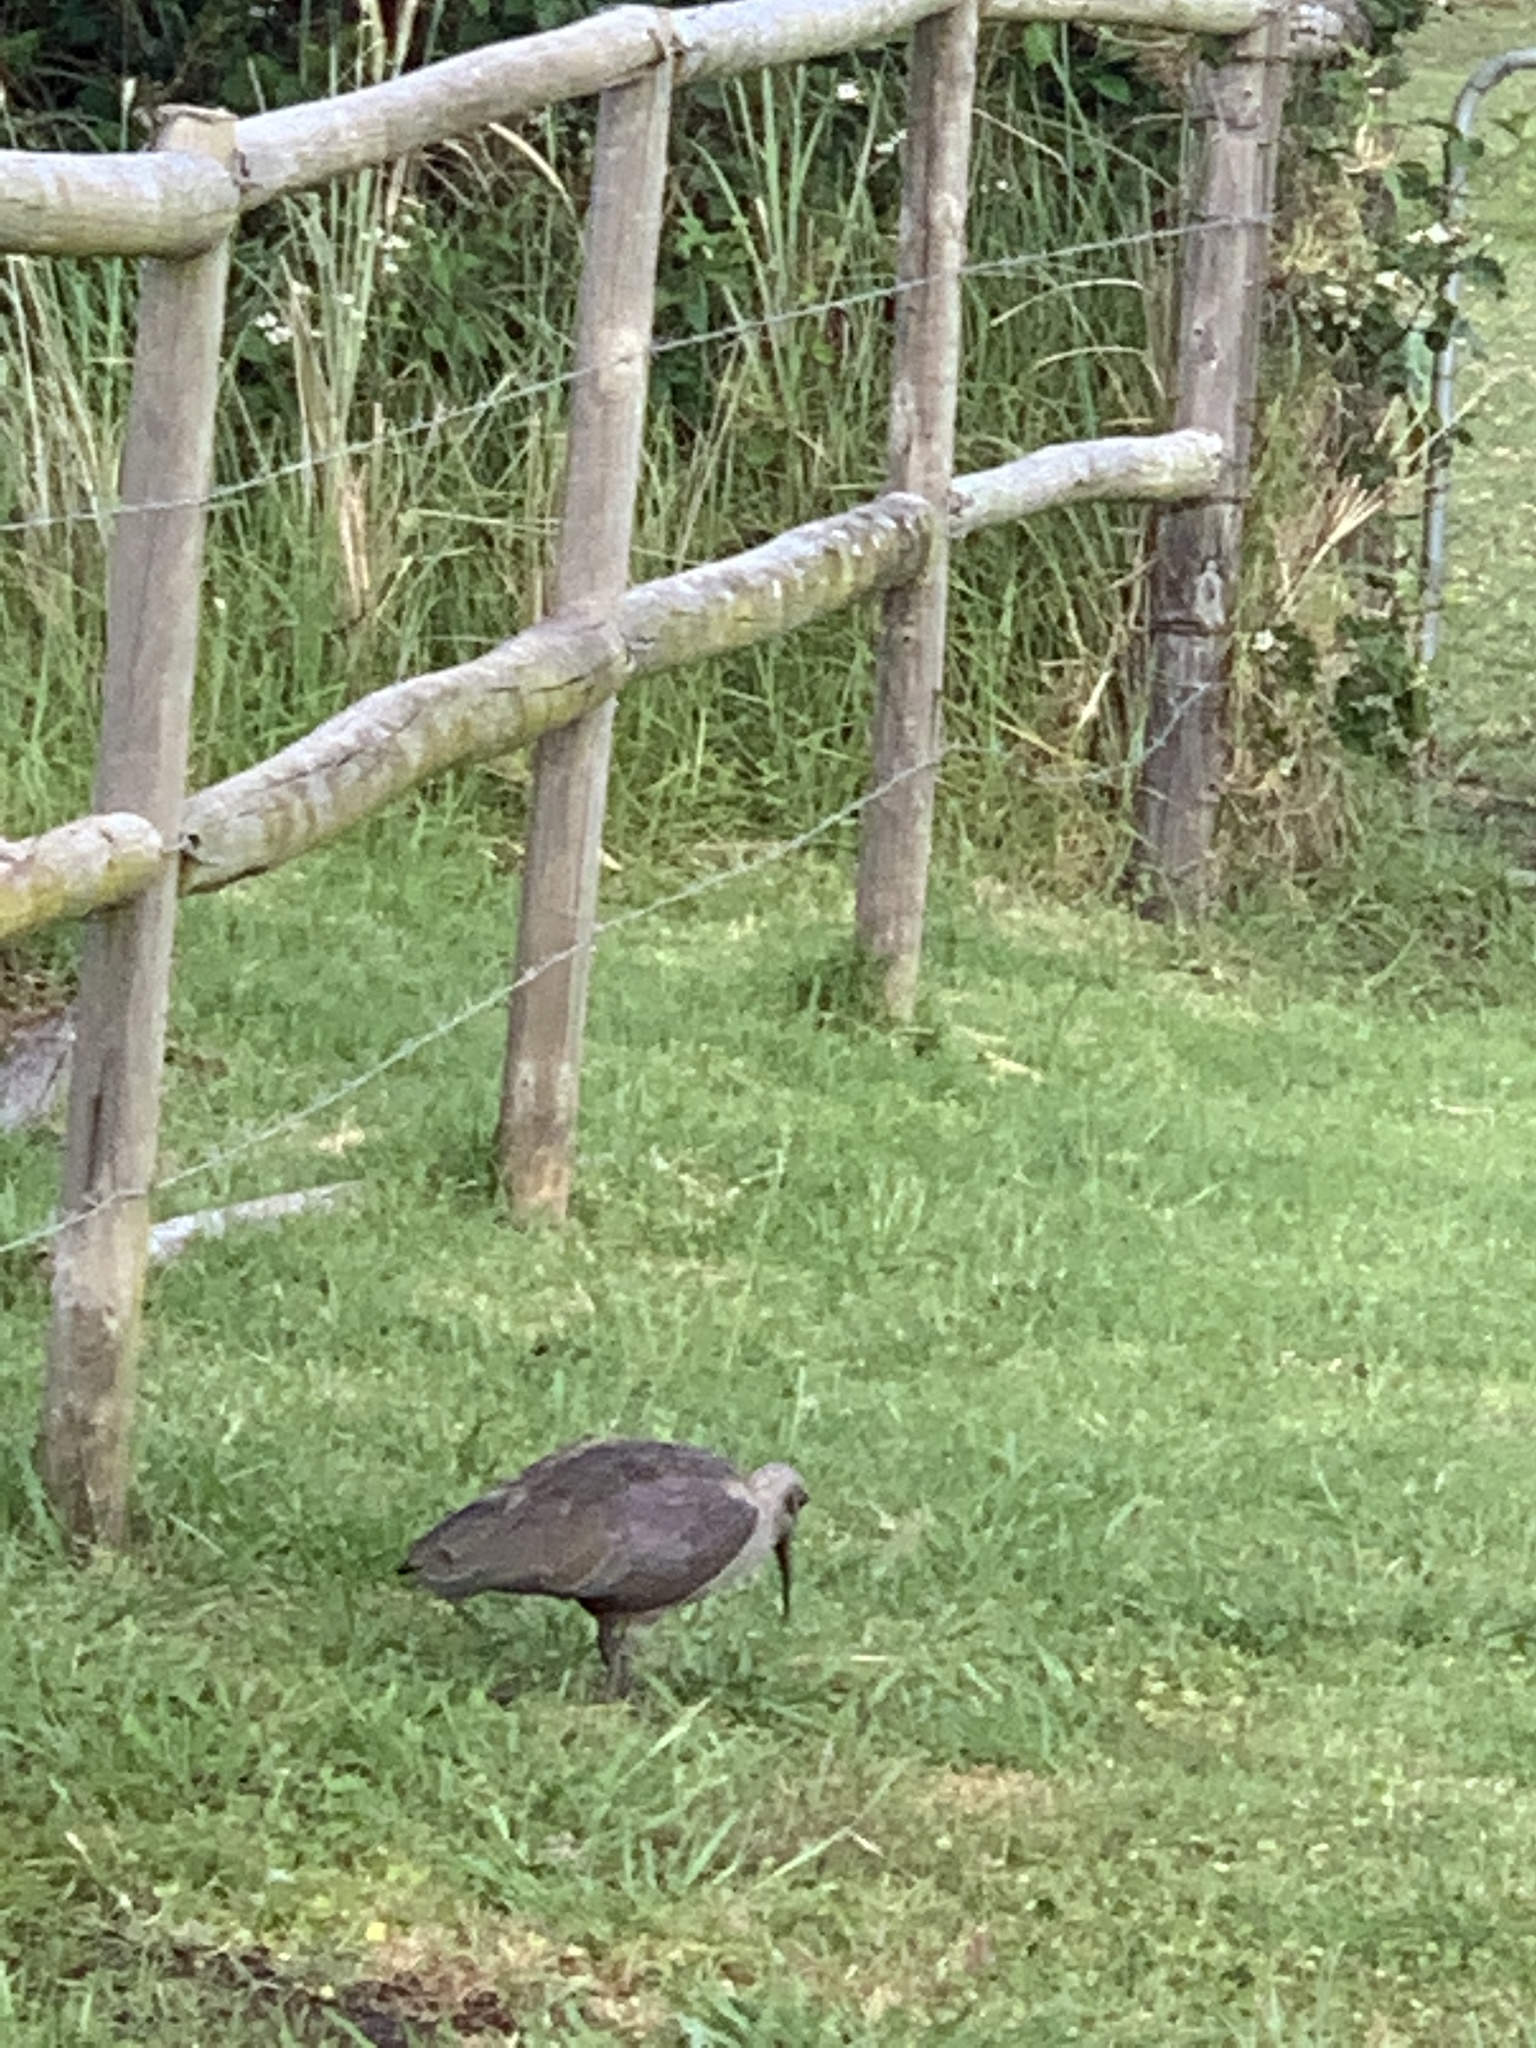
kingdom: Animalia
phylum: Chordata
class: Aves
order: Pelecaniformes
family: Threskiornithidae
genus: Bostrychia
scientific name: Bostrychia hagedash
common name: Hadada ibis
